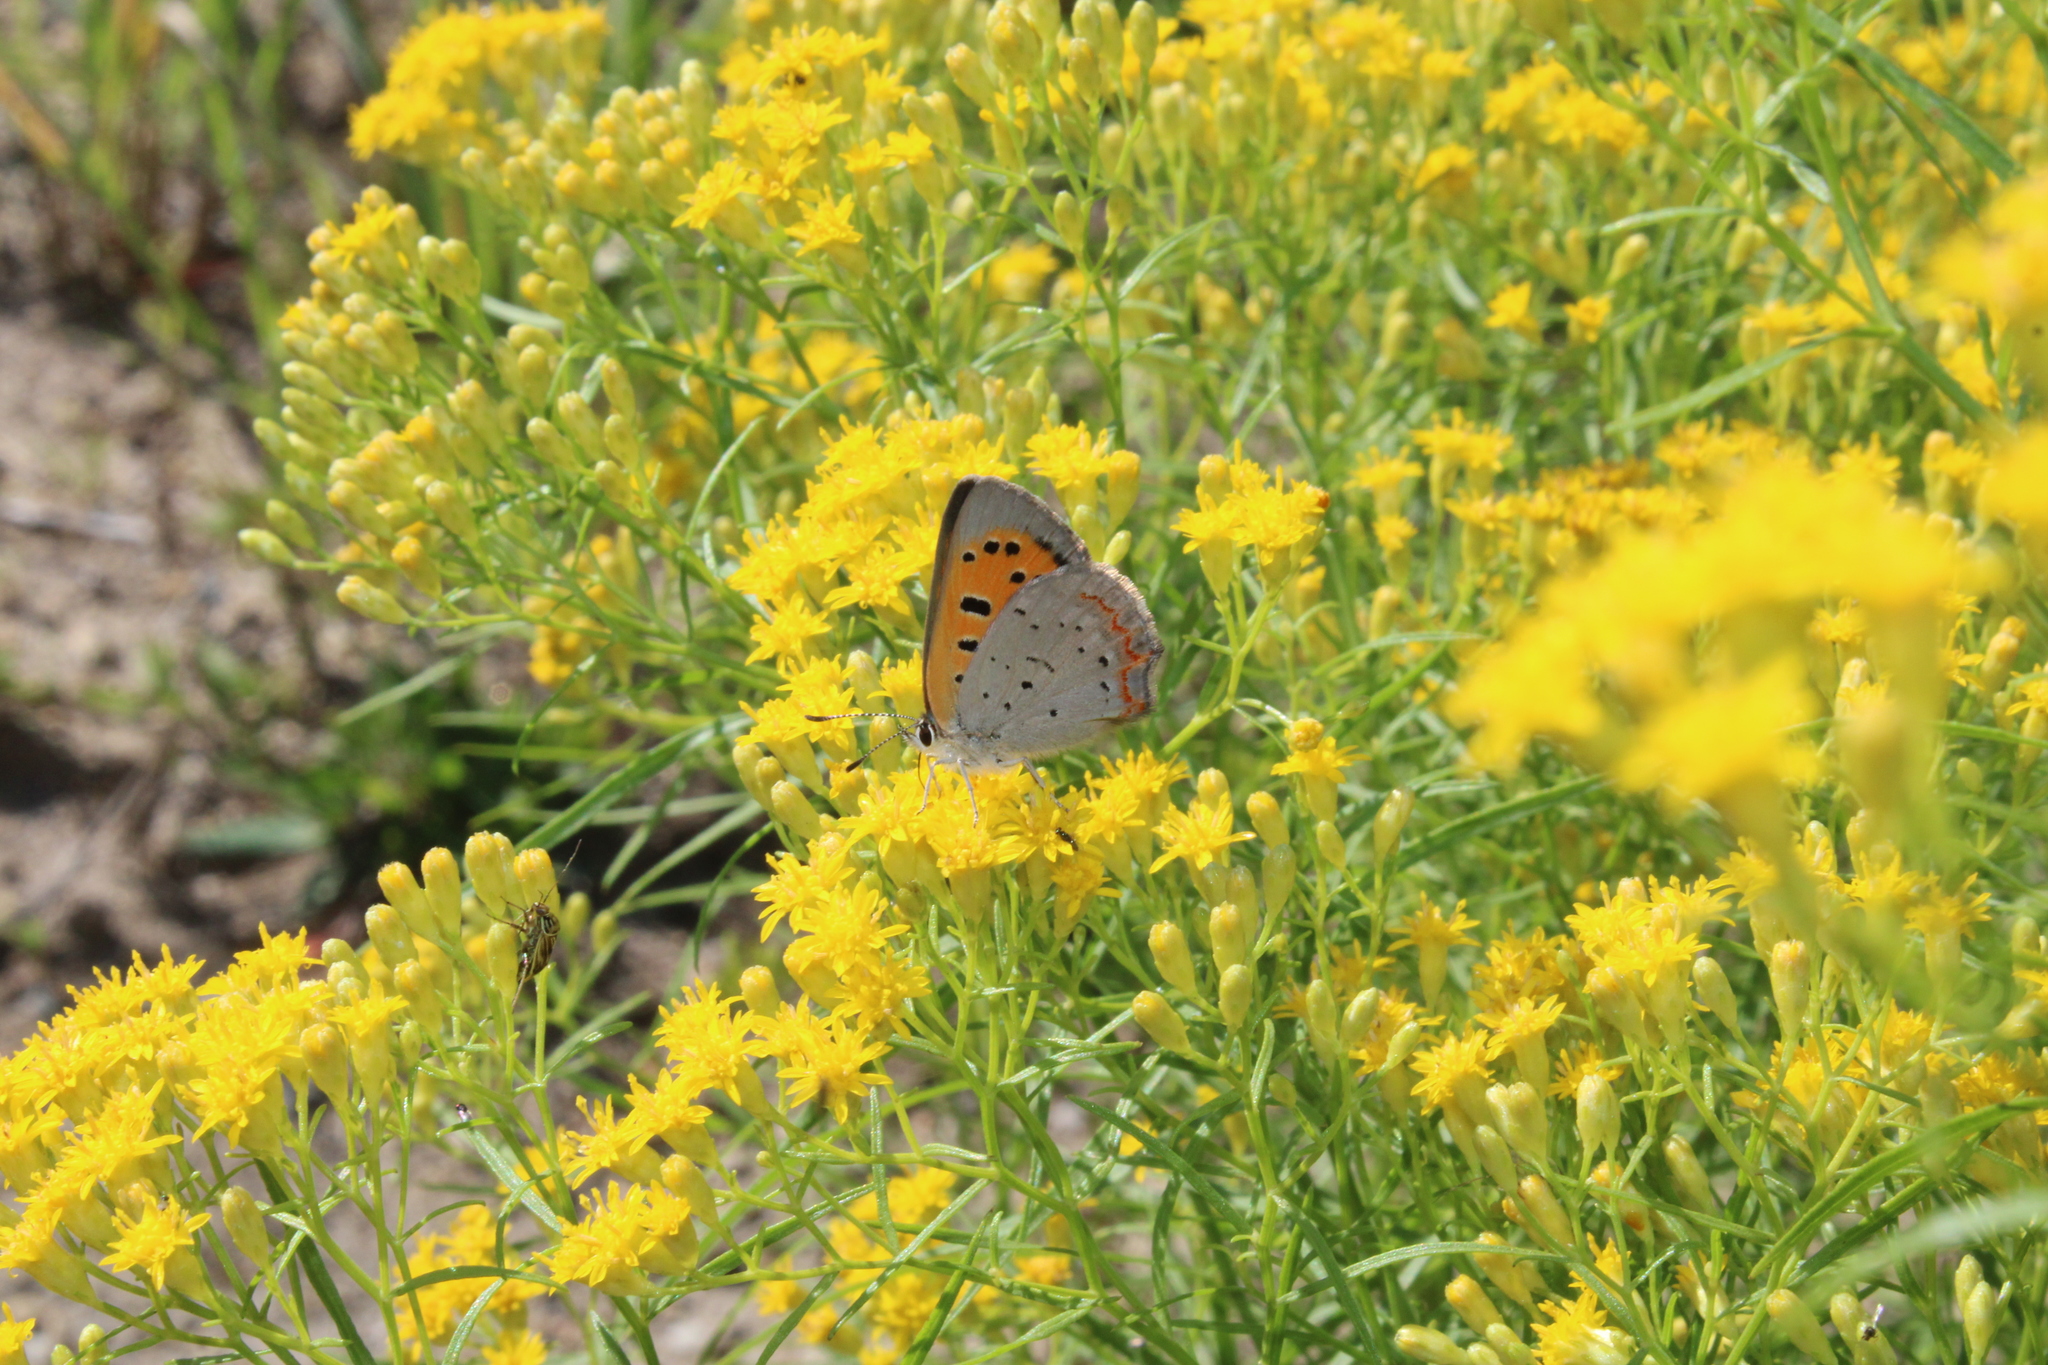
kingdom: Animalia
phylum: Arthropoda
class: Insecta
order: Lepidoptera
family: Lycaenidae
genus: Lycaena
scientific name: Lycaena hypophlaeas
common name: American copper
